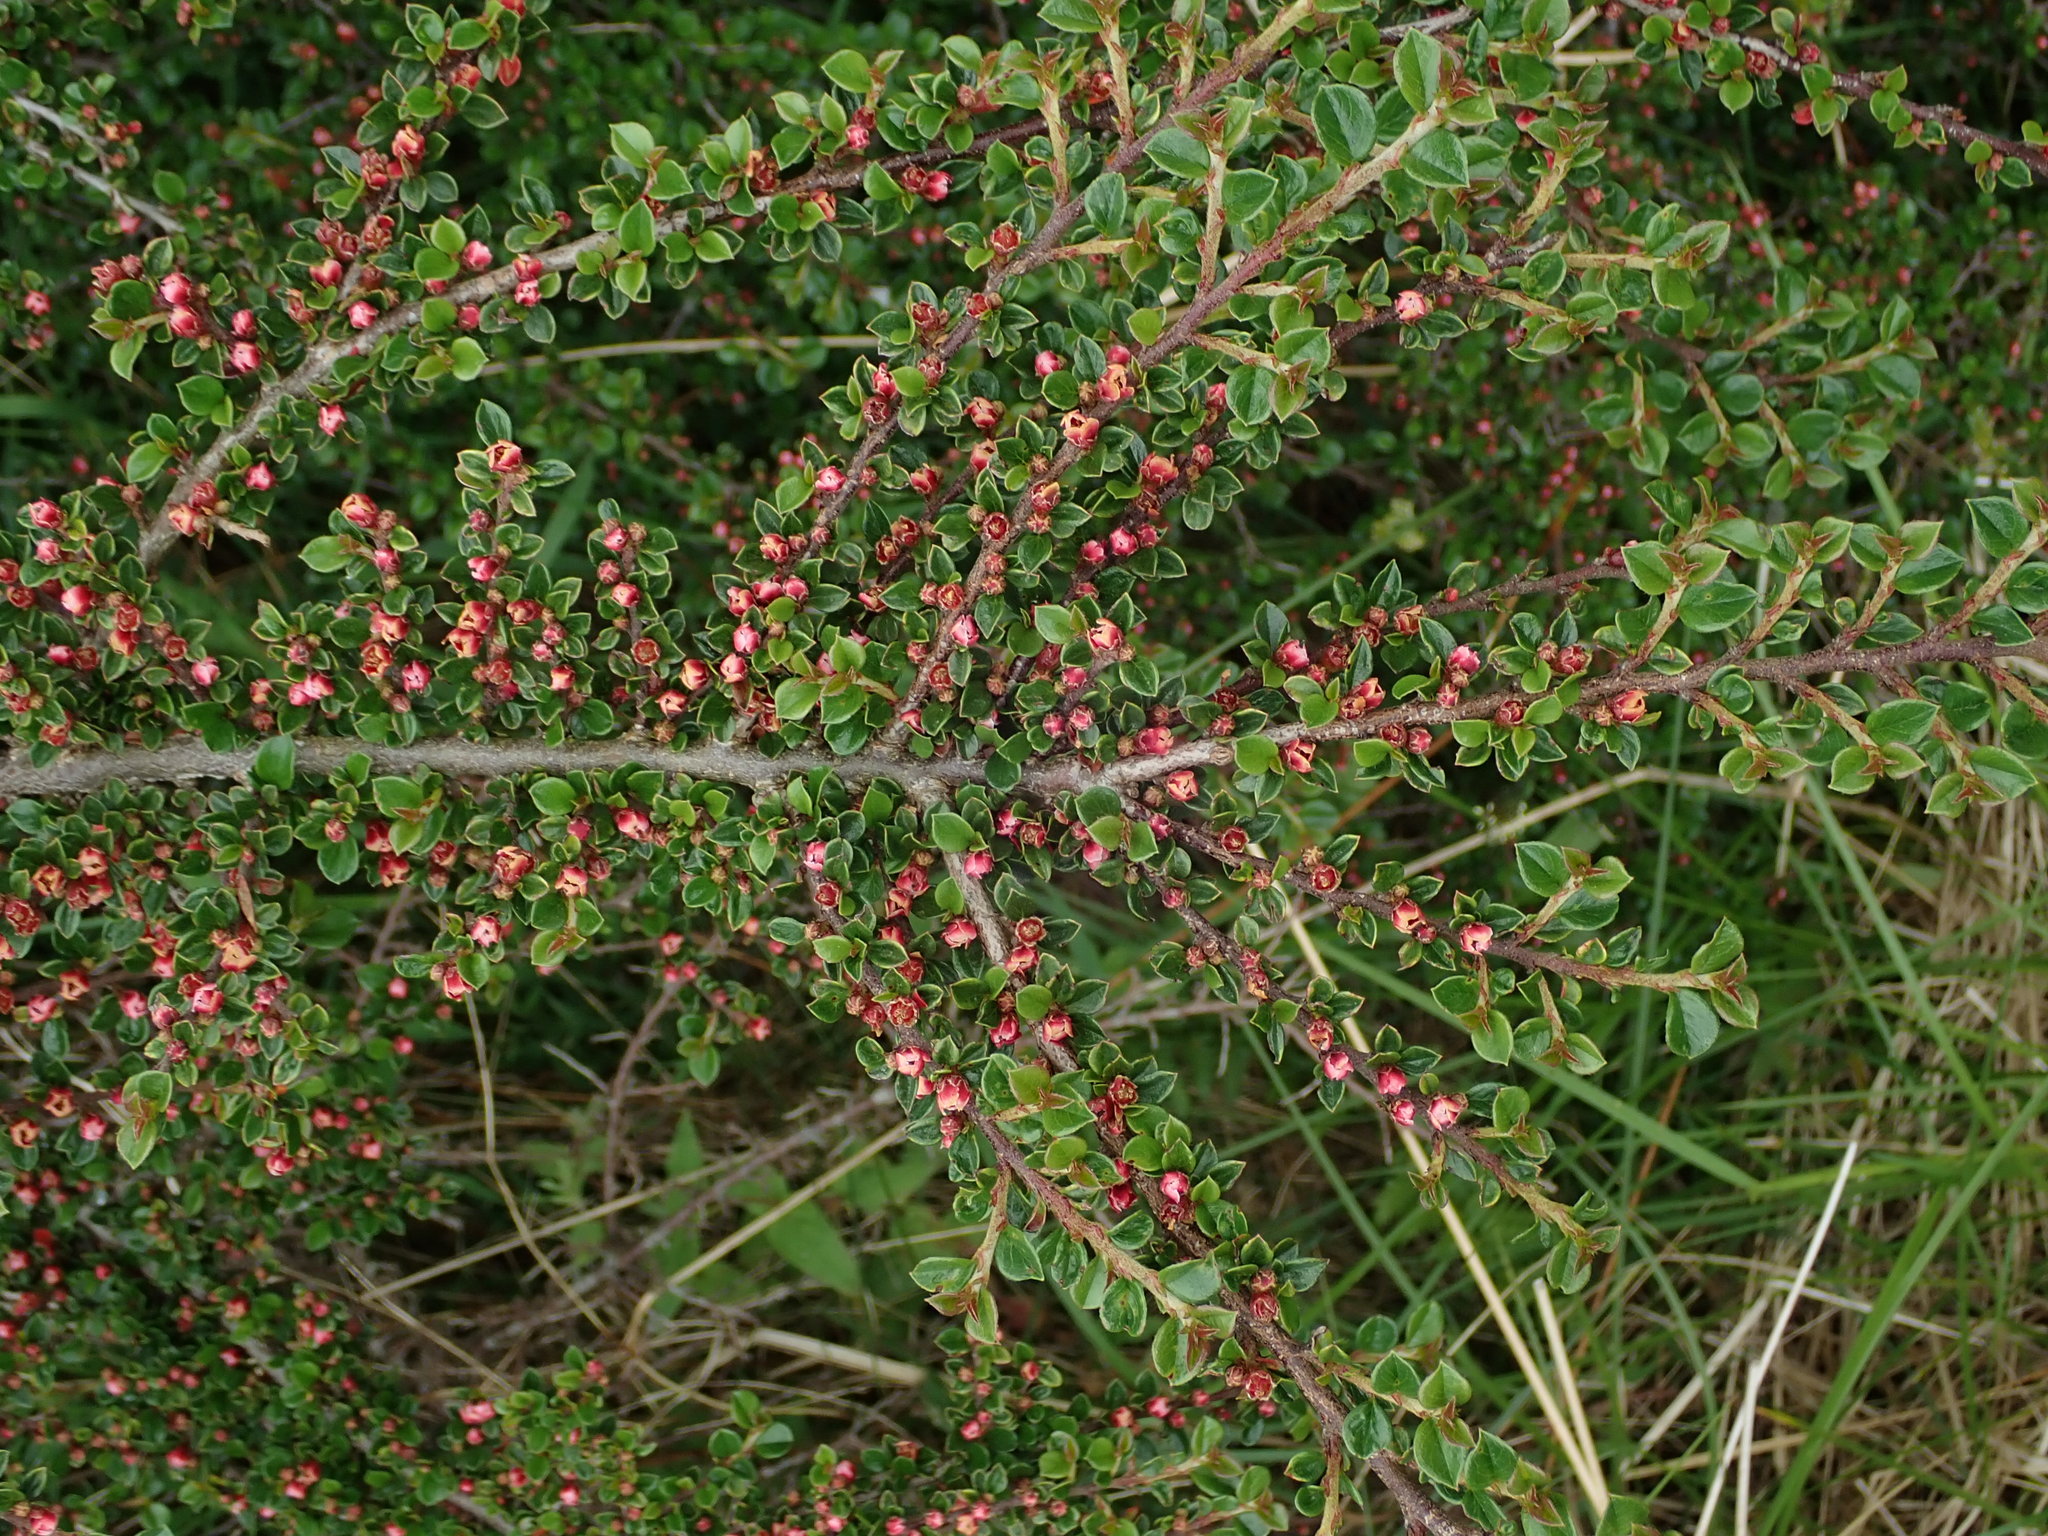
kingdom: Plantae
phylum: Tracheophyta
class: Magnoliopsida
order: Rosales
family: Rosaceae
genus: Cotoneaster
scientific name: Cotoneaster horizontalis
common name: Wall cotoneaster
